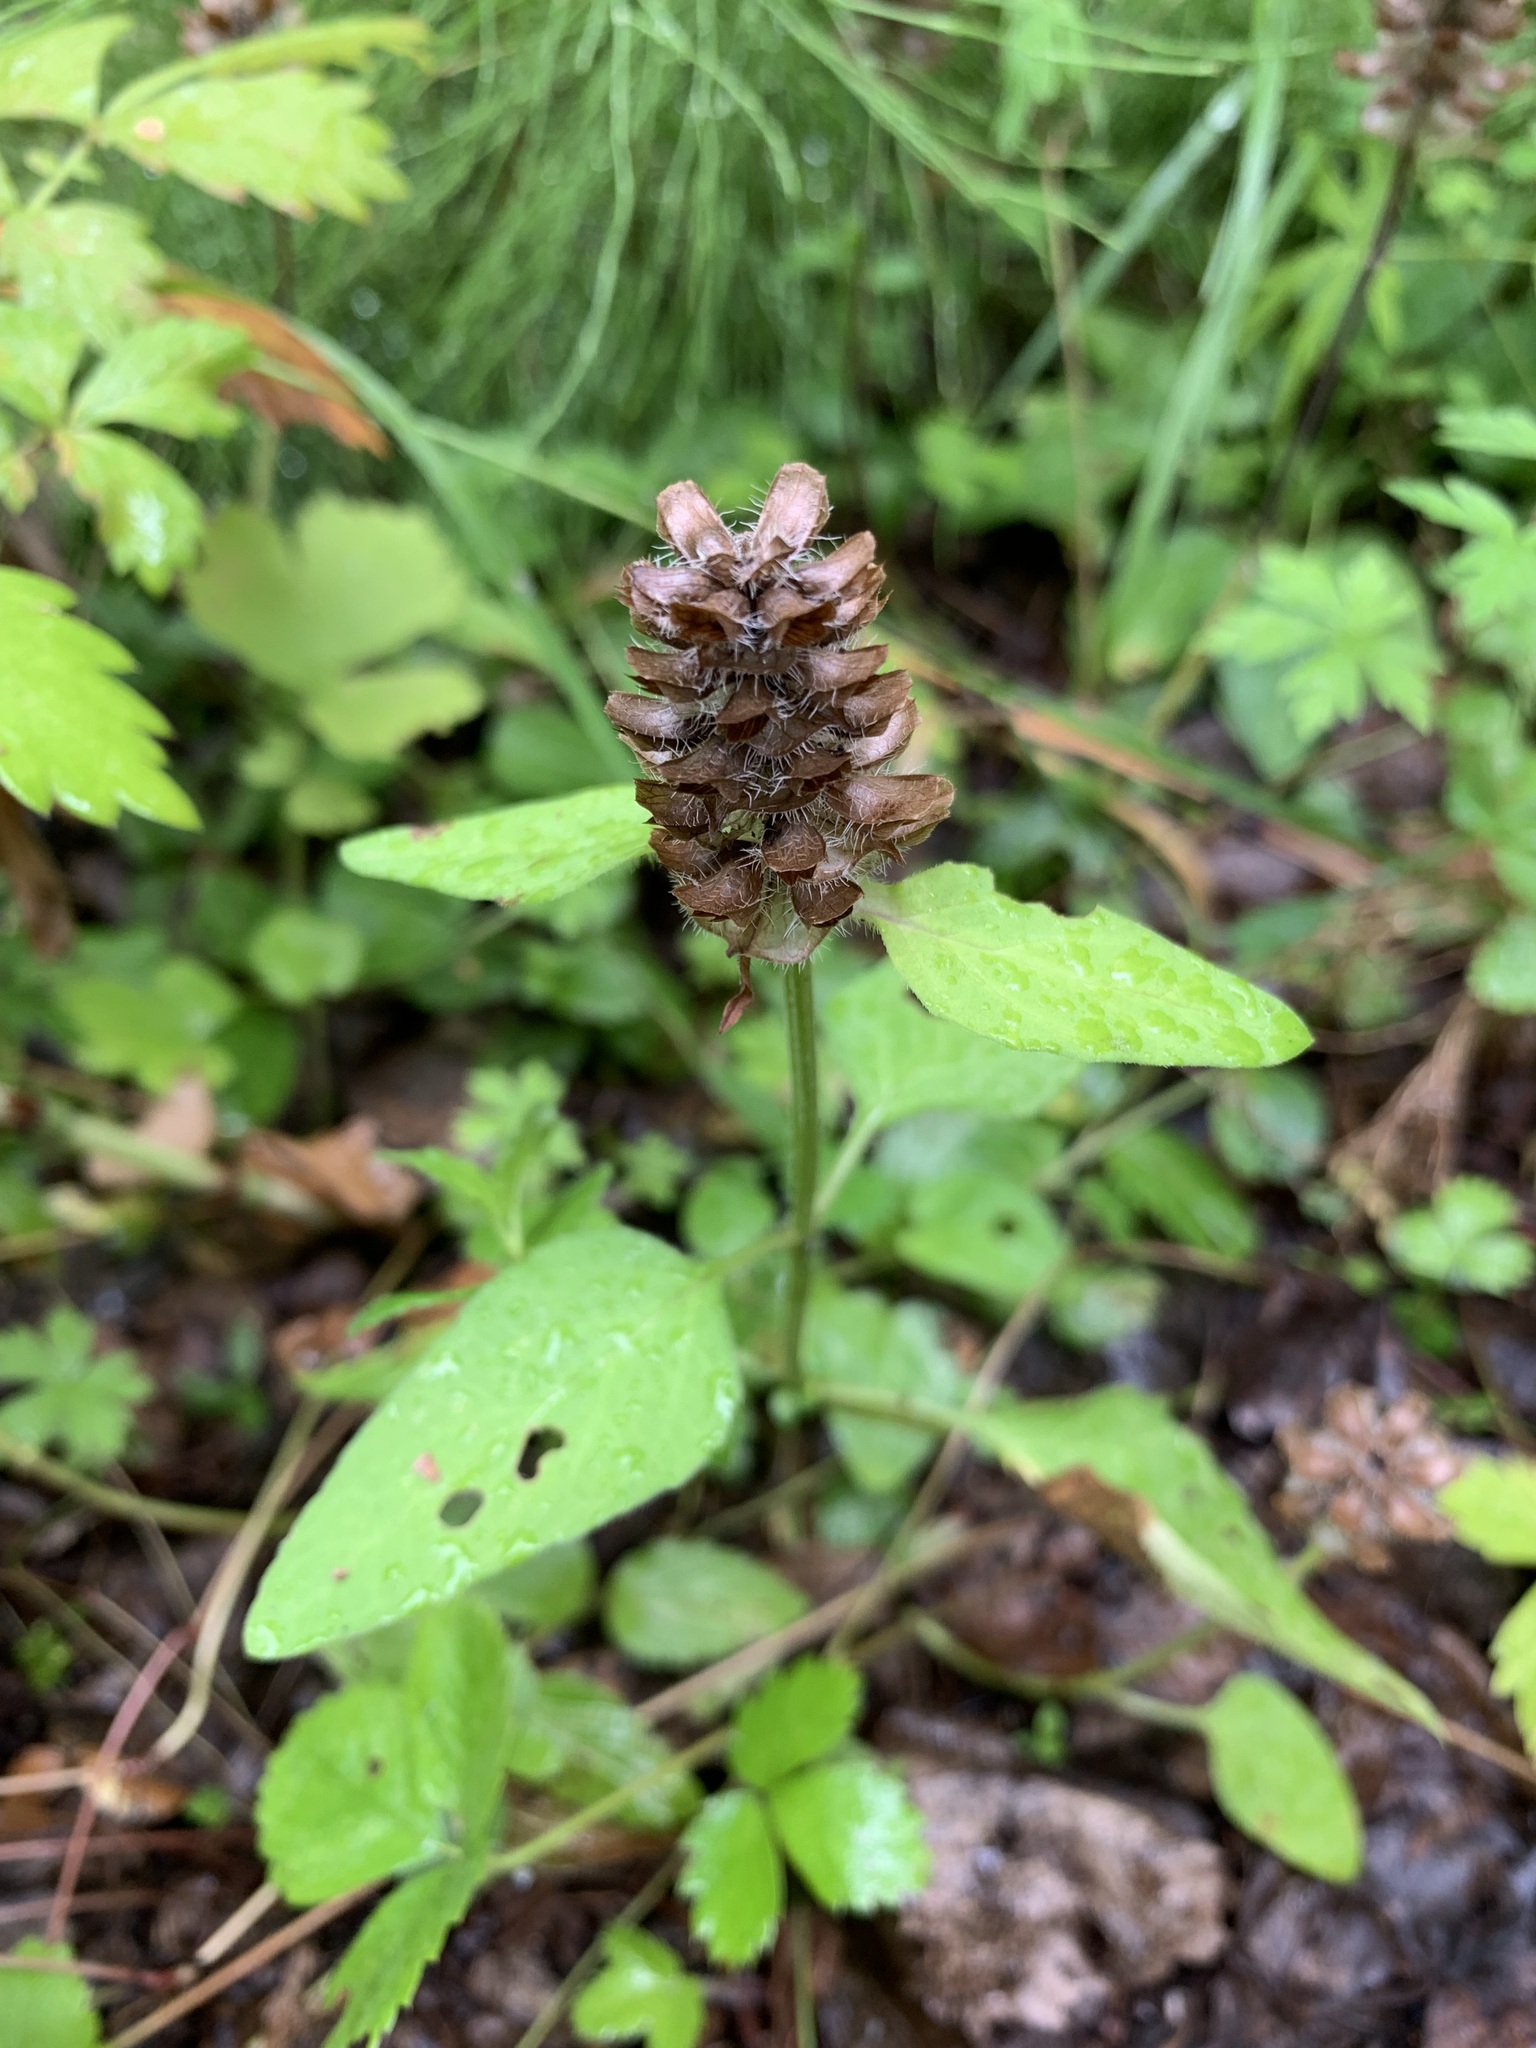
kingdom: Plantae
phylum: Tracheophyta
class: Magnoliopsida
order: Lamiales
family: Lamiaceae
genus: Prunella
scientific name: Prunella vulgaris
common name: Heal-all
